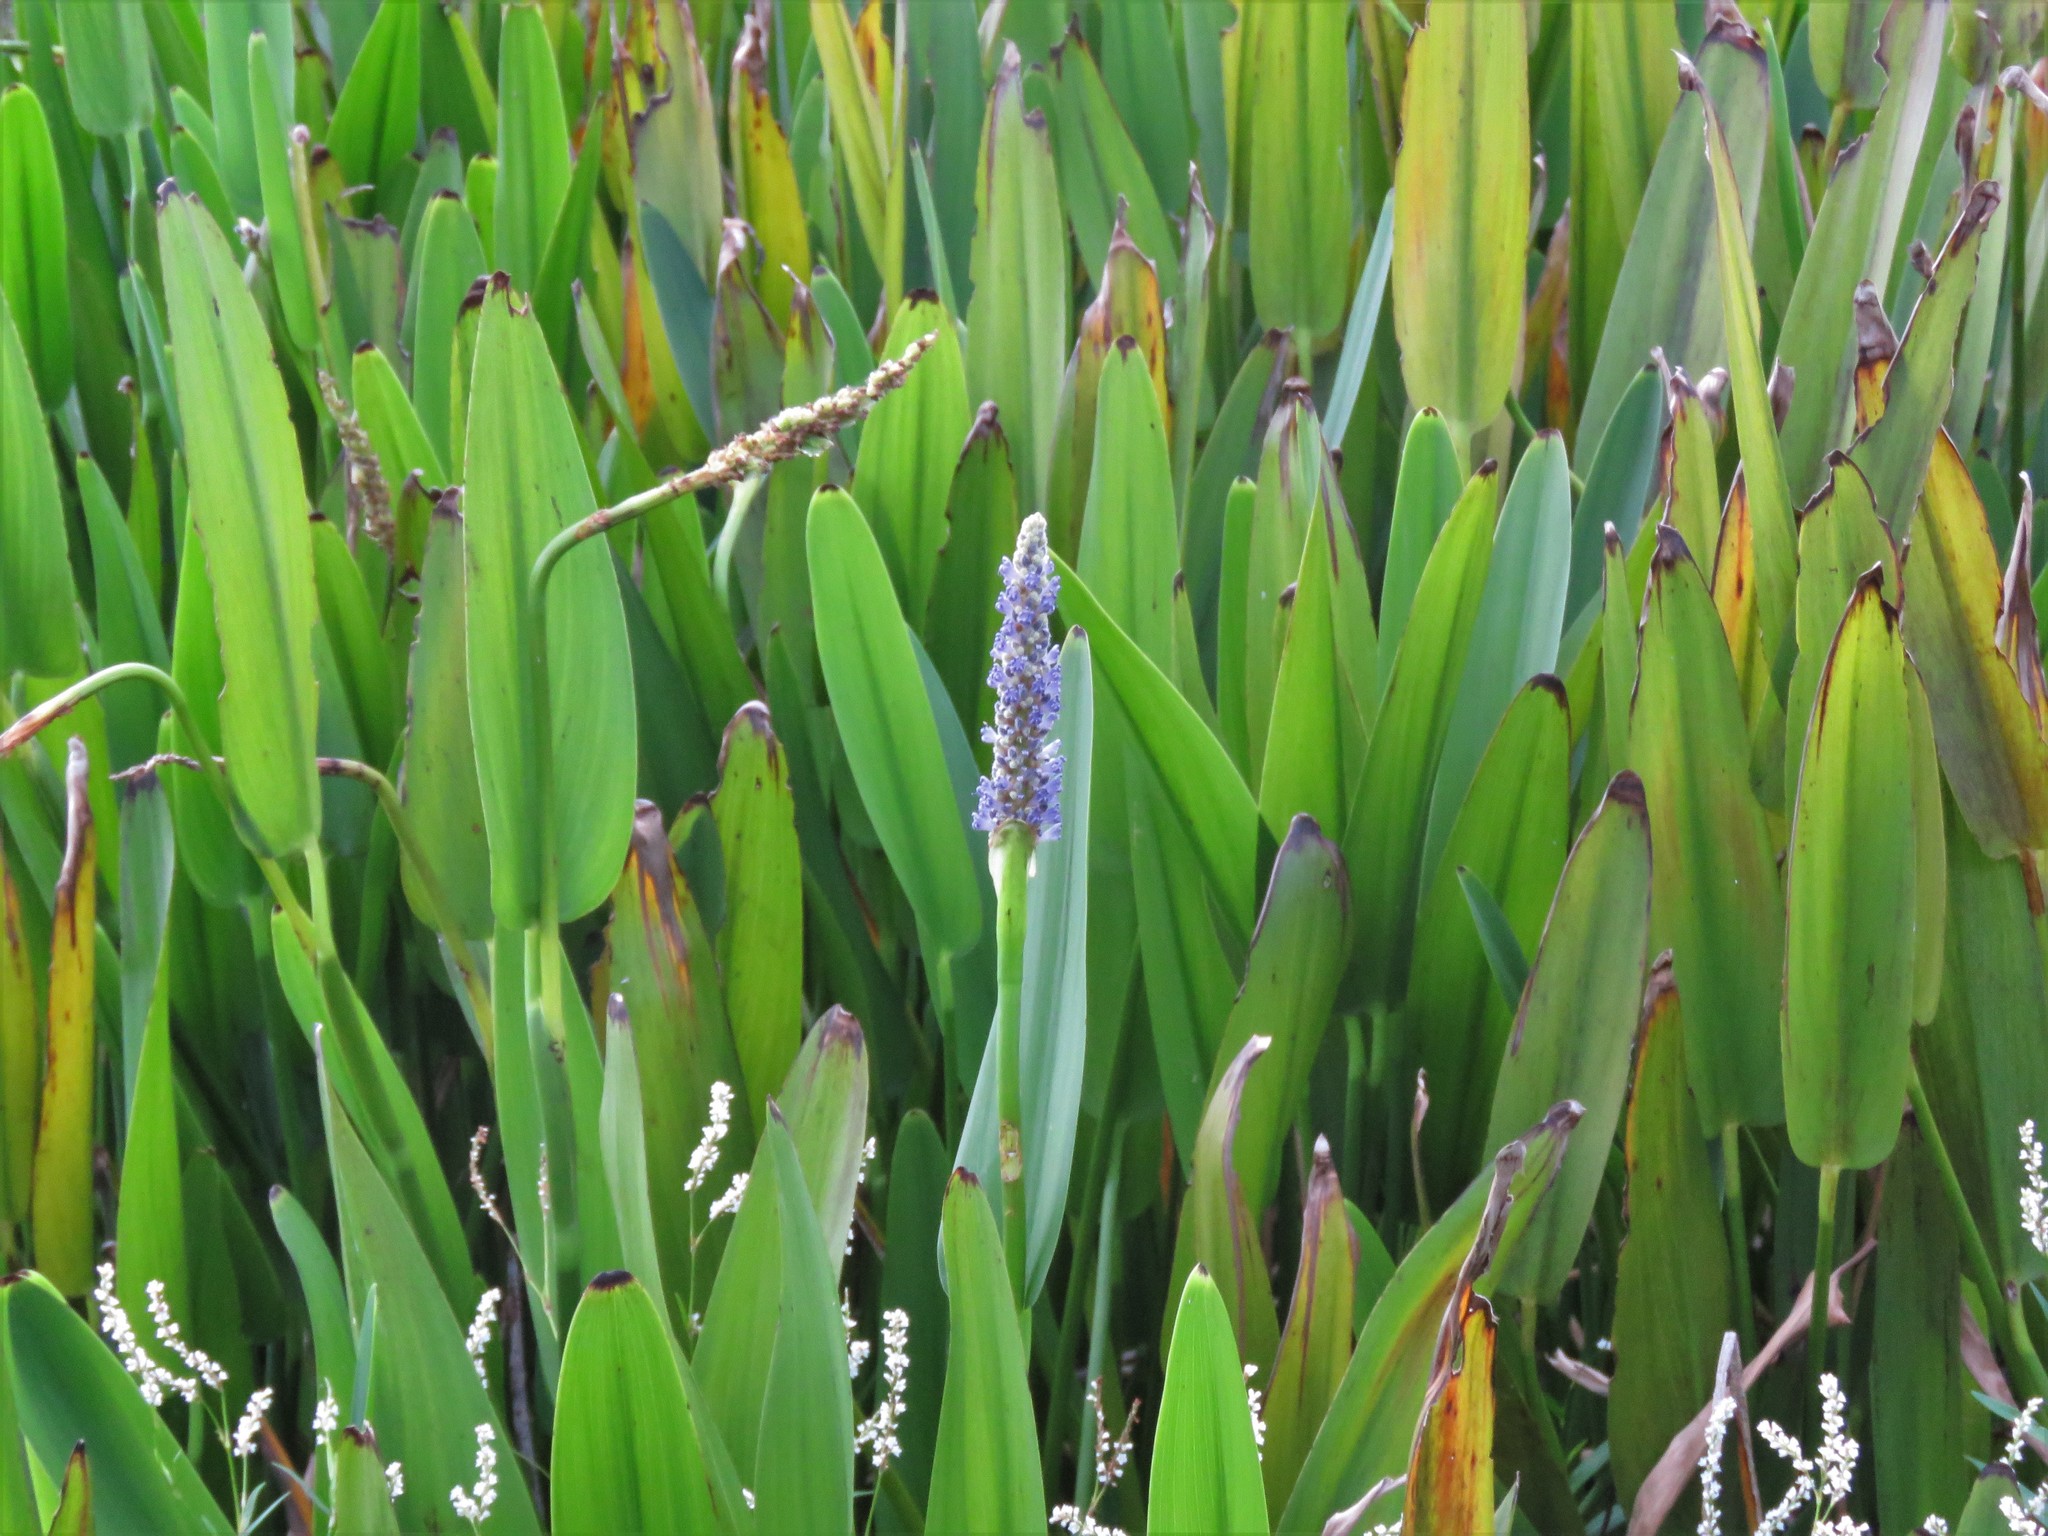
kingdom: Plantae
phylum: Tracheophyta
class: Liliopsida
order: Commelinales
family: Pontederiaceae
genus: Pontederia
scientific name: Pontederia cordata
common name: Pickerelweed
